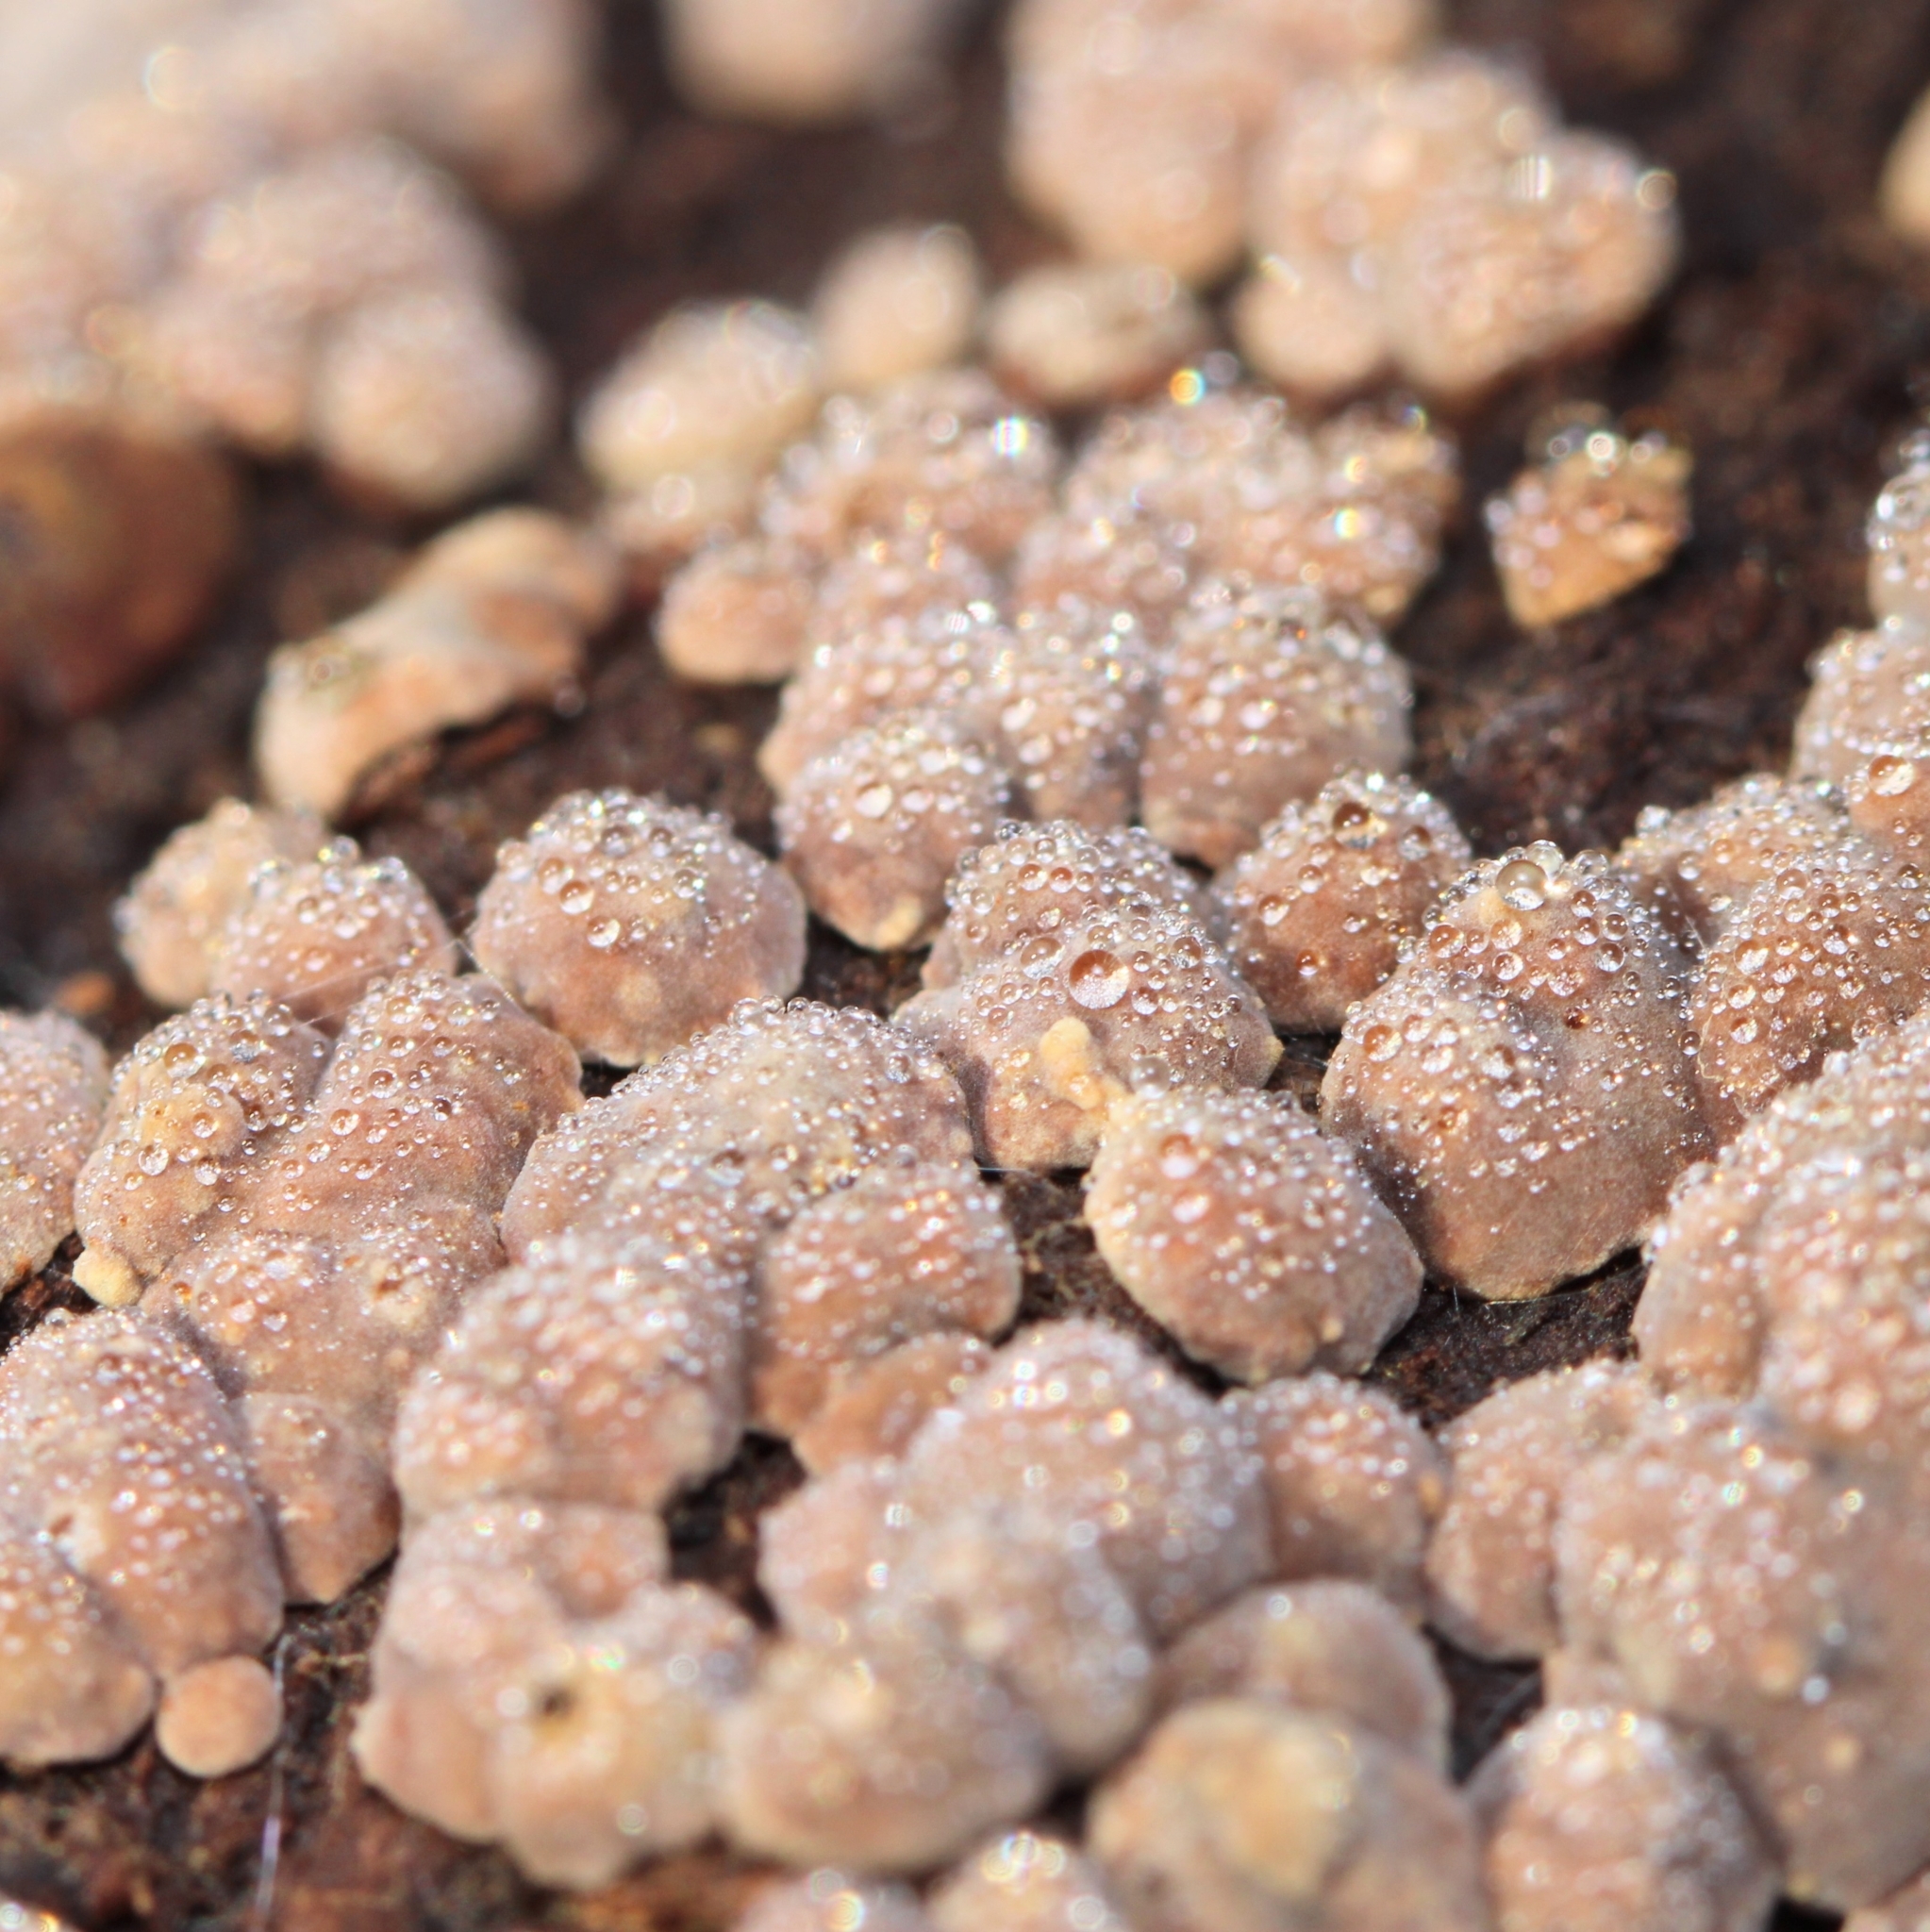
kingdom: Fungi
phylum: Basidiomycota
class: Agaricomycetes
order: Russulales
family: Stereaceae
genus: Xylobolus
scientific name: Xylobolus frustulatus
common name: Ceramic parchment
